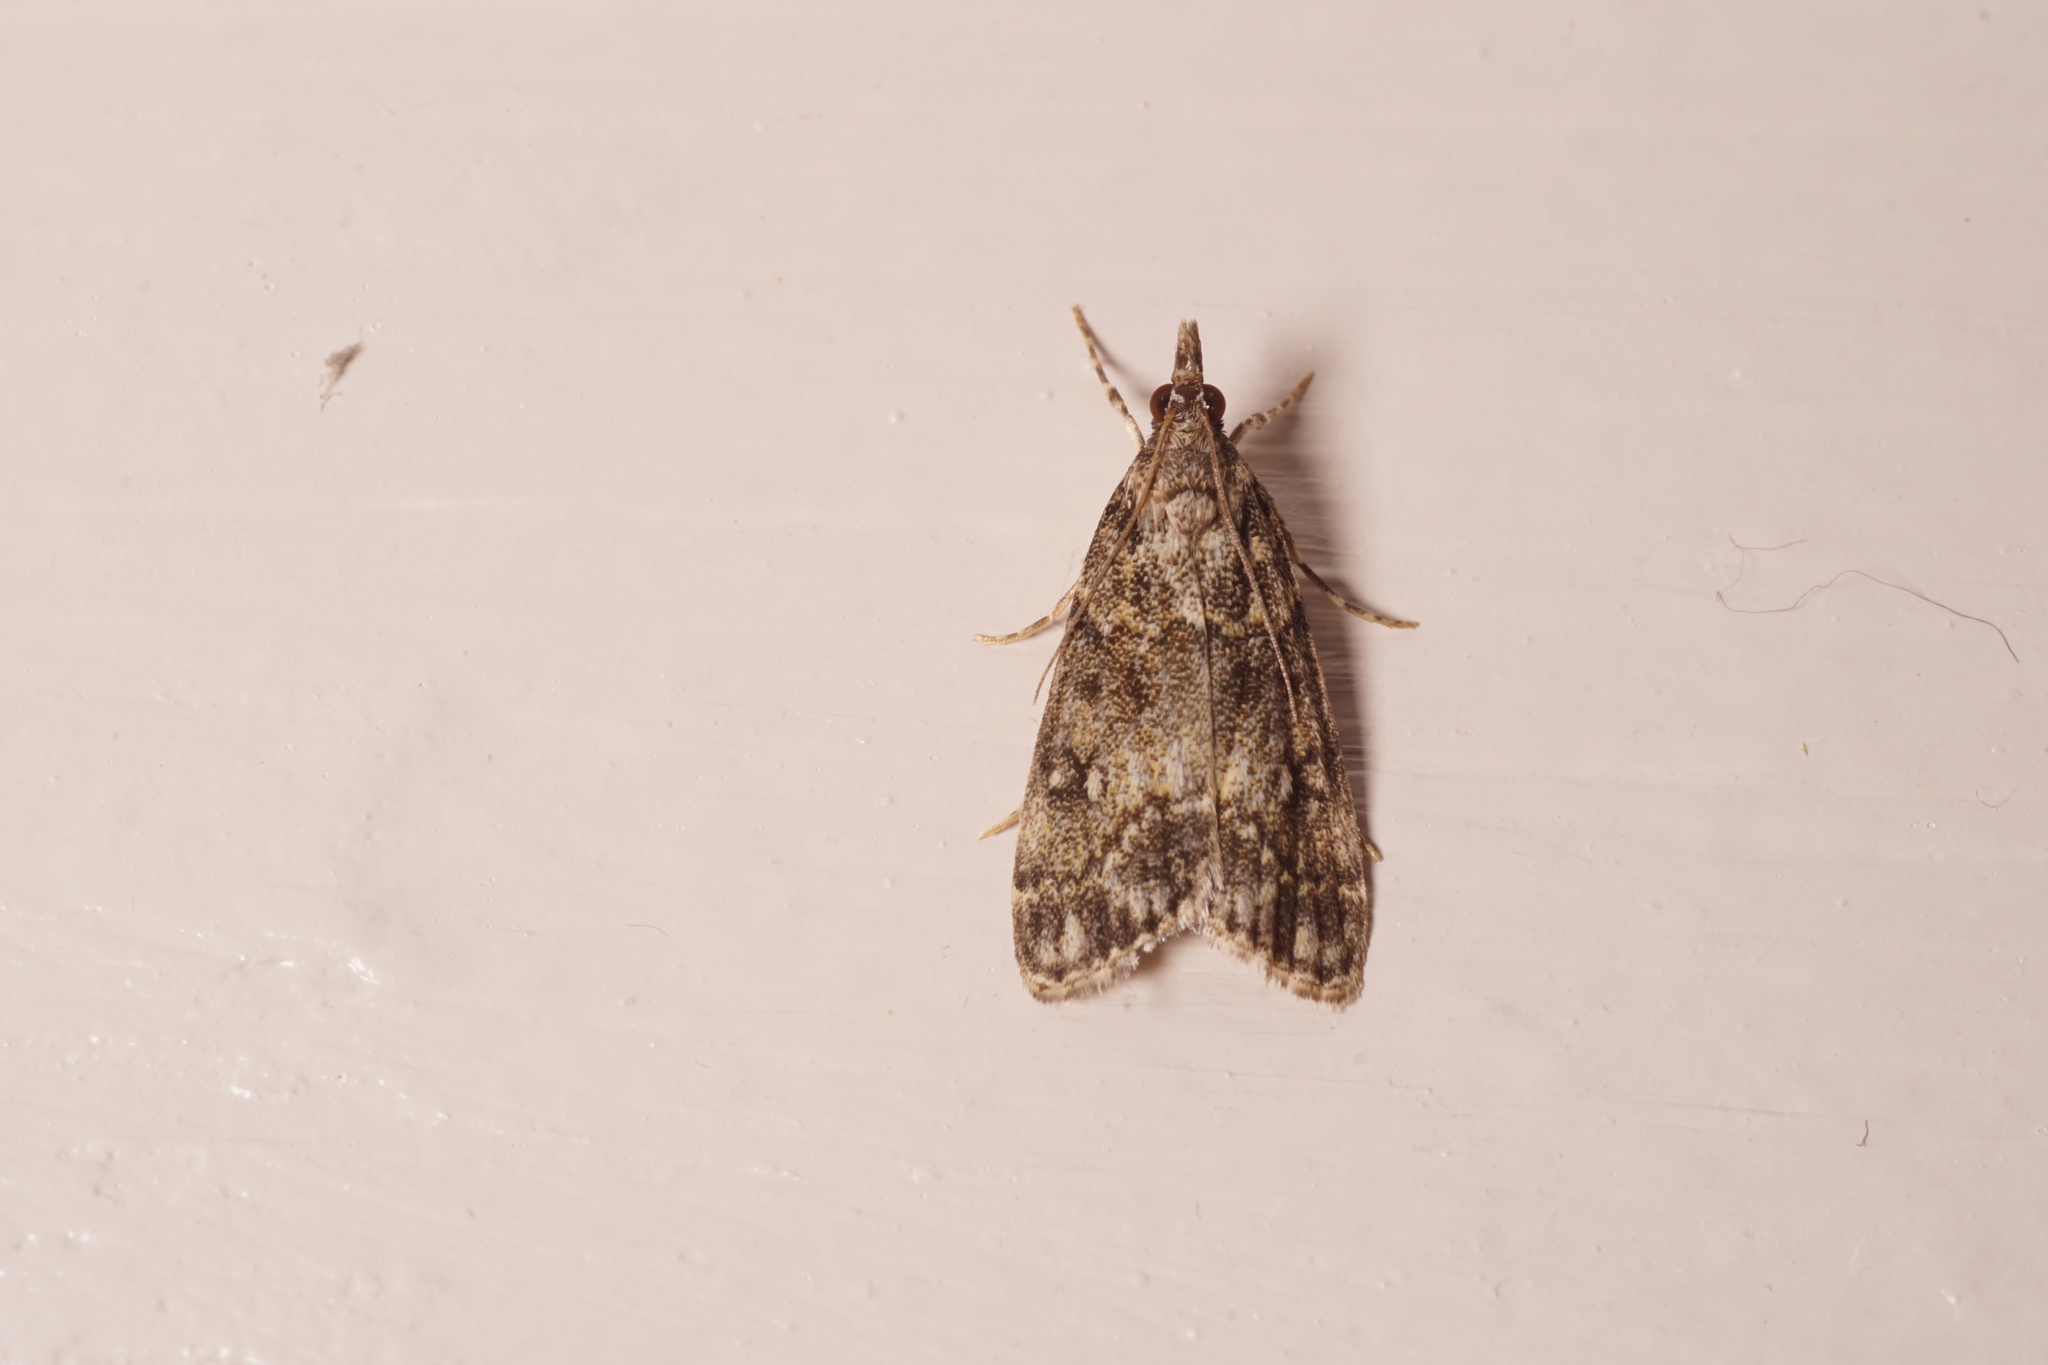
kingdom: Animalia
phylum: Arthropoda
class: Insecta
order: Lepidoptera
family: Crambidae
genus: Eudonia
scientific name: Eudonia lacustrata
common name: Little grey
